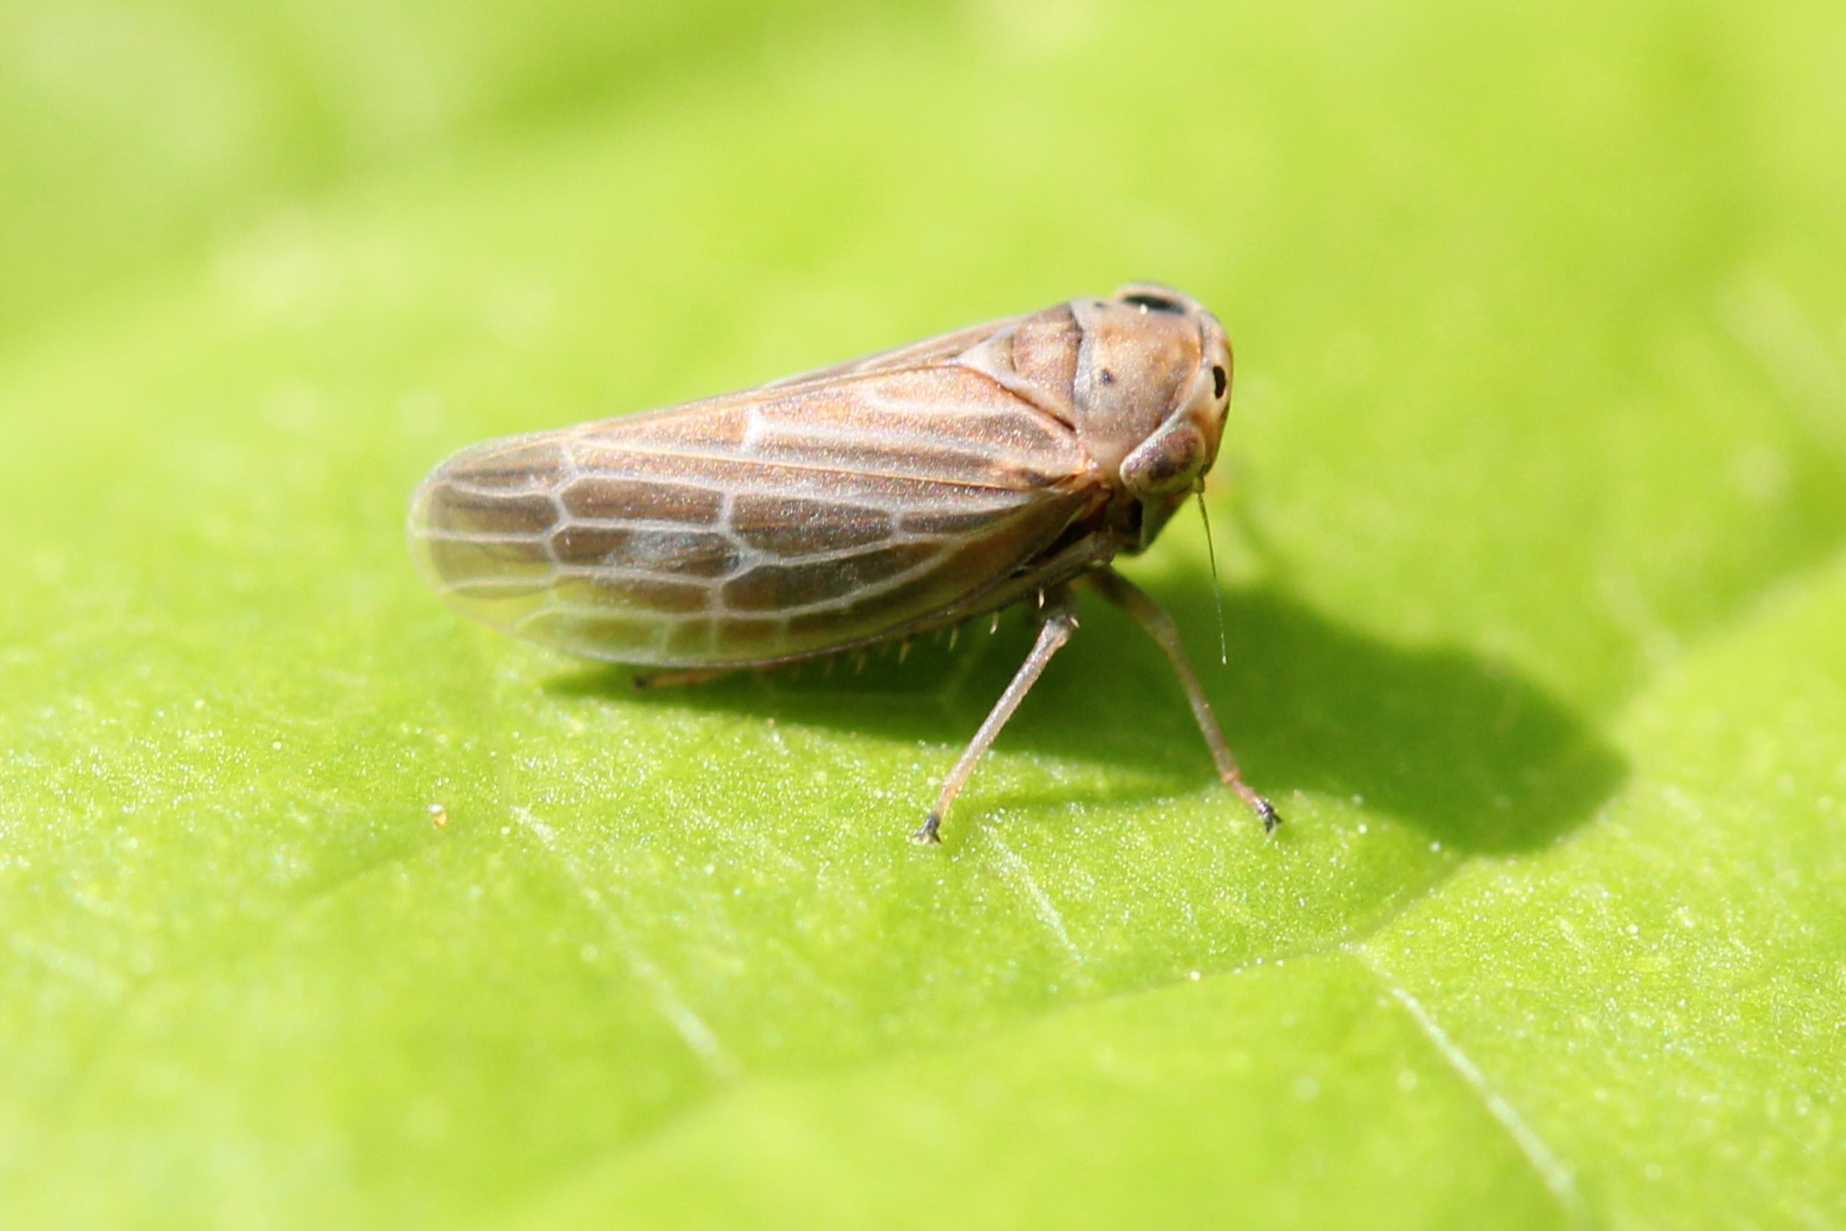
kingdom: Animalia
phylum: Arthropoda
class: Insecta
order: Hemiptera
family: Cicadellidae
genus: Agalliota
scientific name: Agalliota quadripunctata
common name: The four-spotted clover leafhopper
